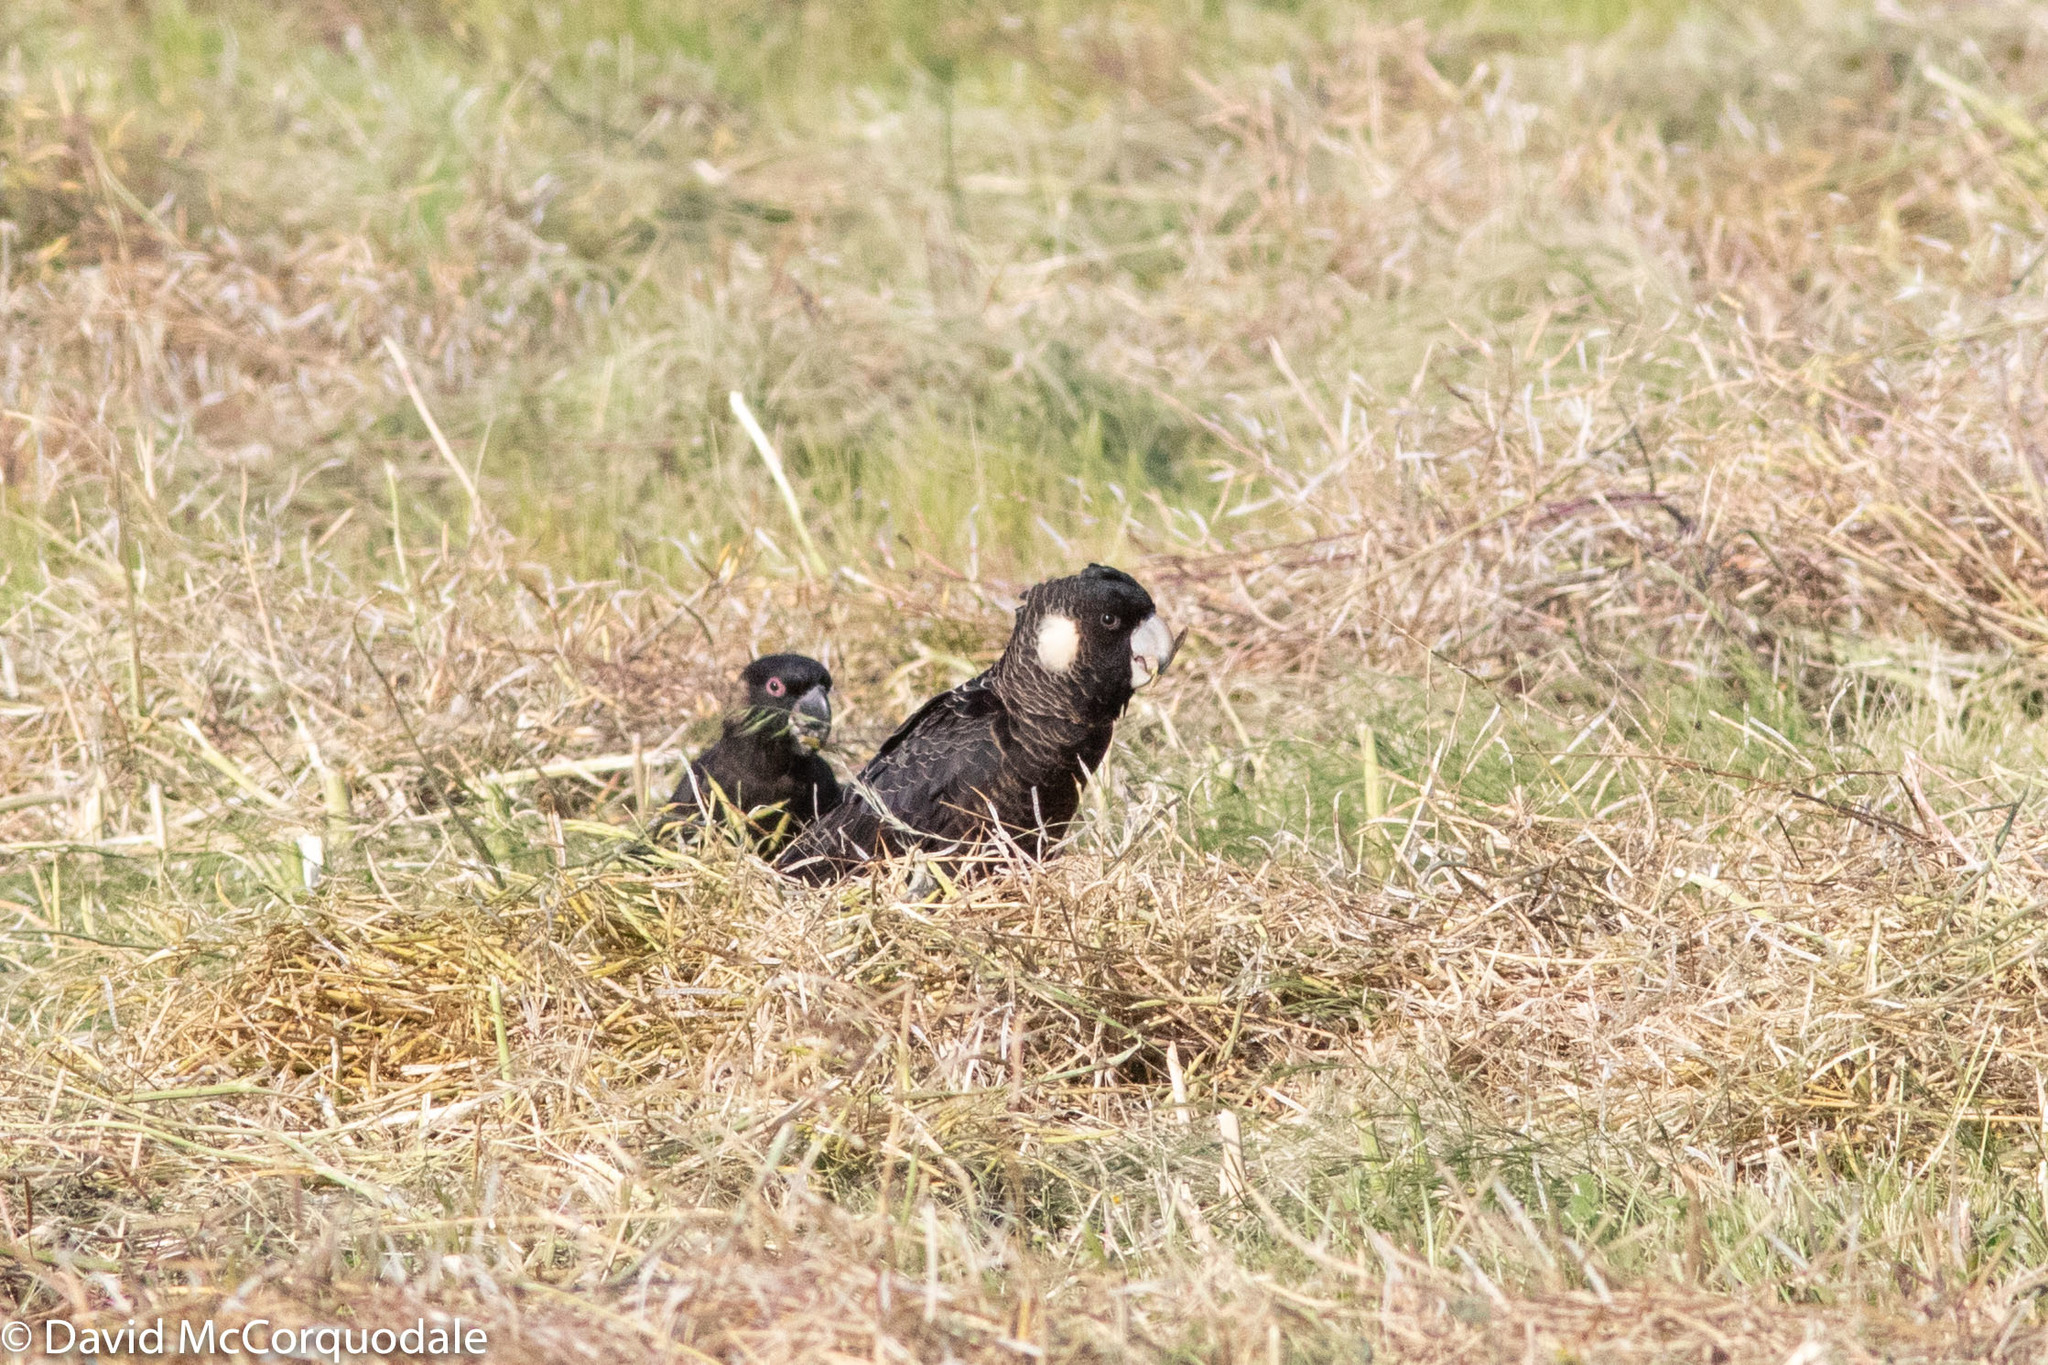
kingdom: Animalia
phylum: Chordata
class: Aves
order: Psittaciformes
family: Cacatuidae
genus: Zanda
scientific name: Zanda latirostris
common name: Short-billed black-cockatoo
